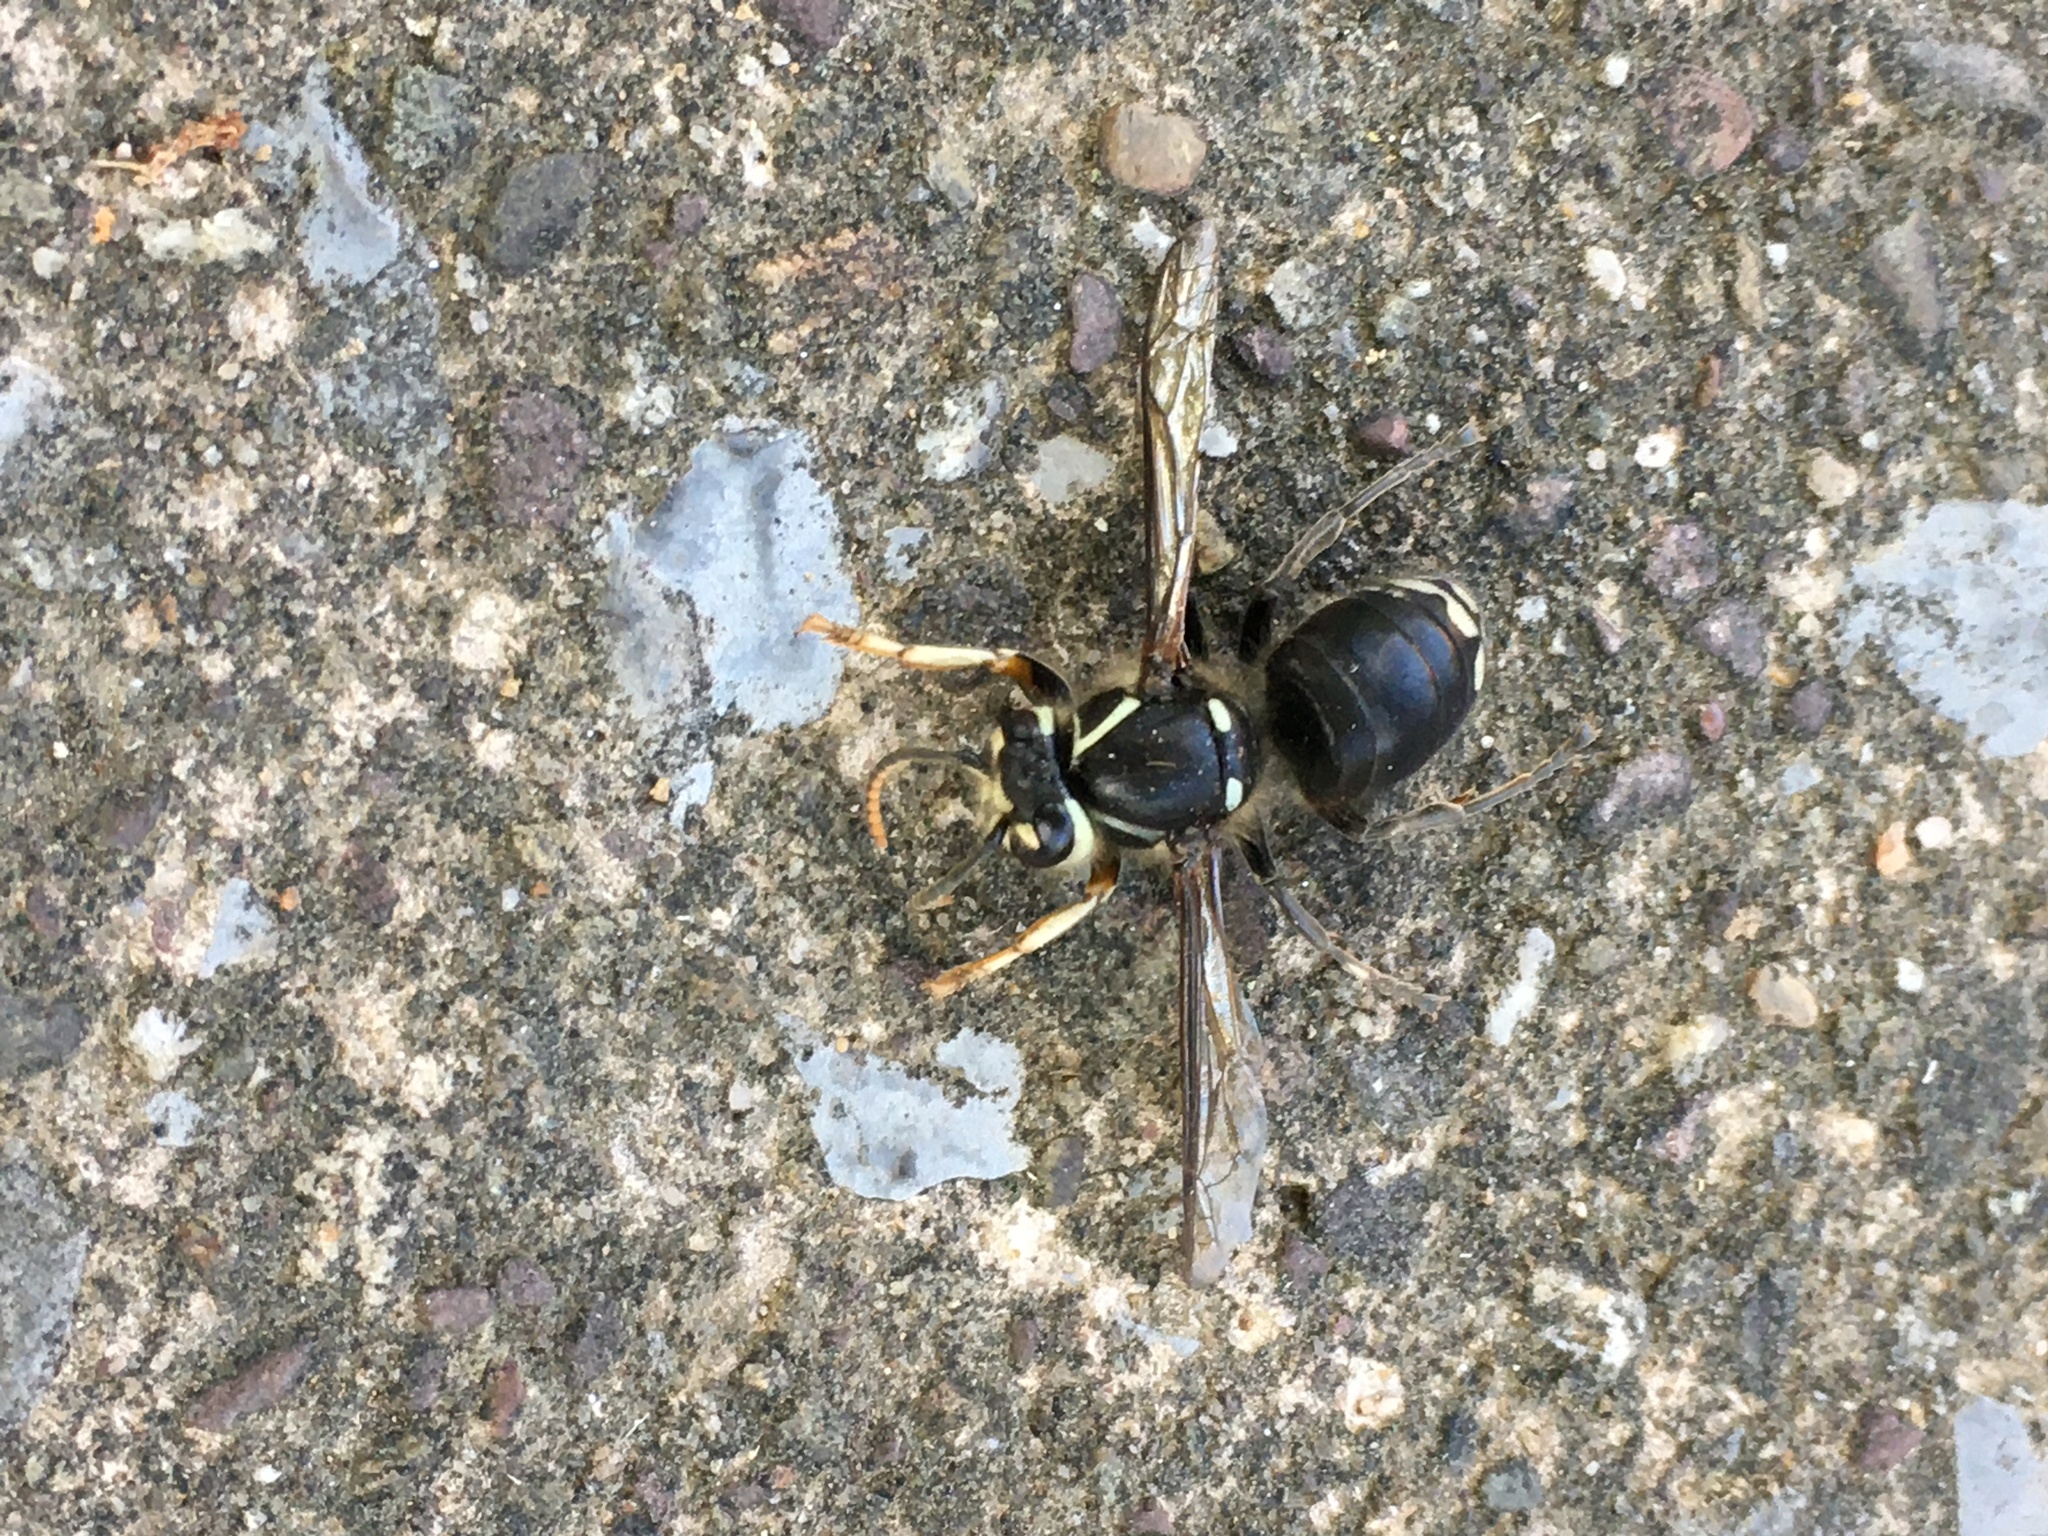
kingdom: Animalia
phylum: Arthropoda
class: Insecta
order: Hymenoptera
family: Vespidae
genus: Dolichovespula
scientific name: Dolichovespula maculata
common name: Bald-faced hornet
